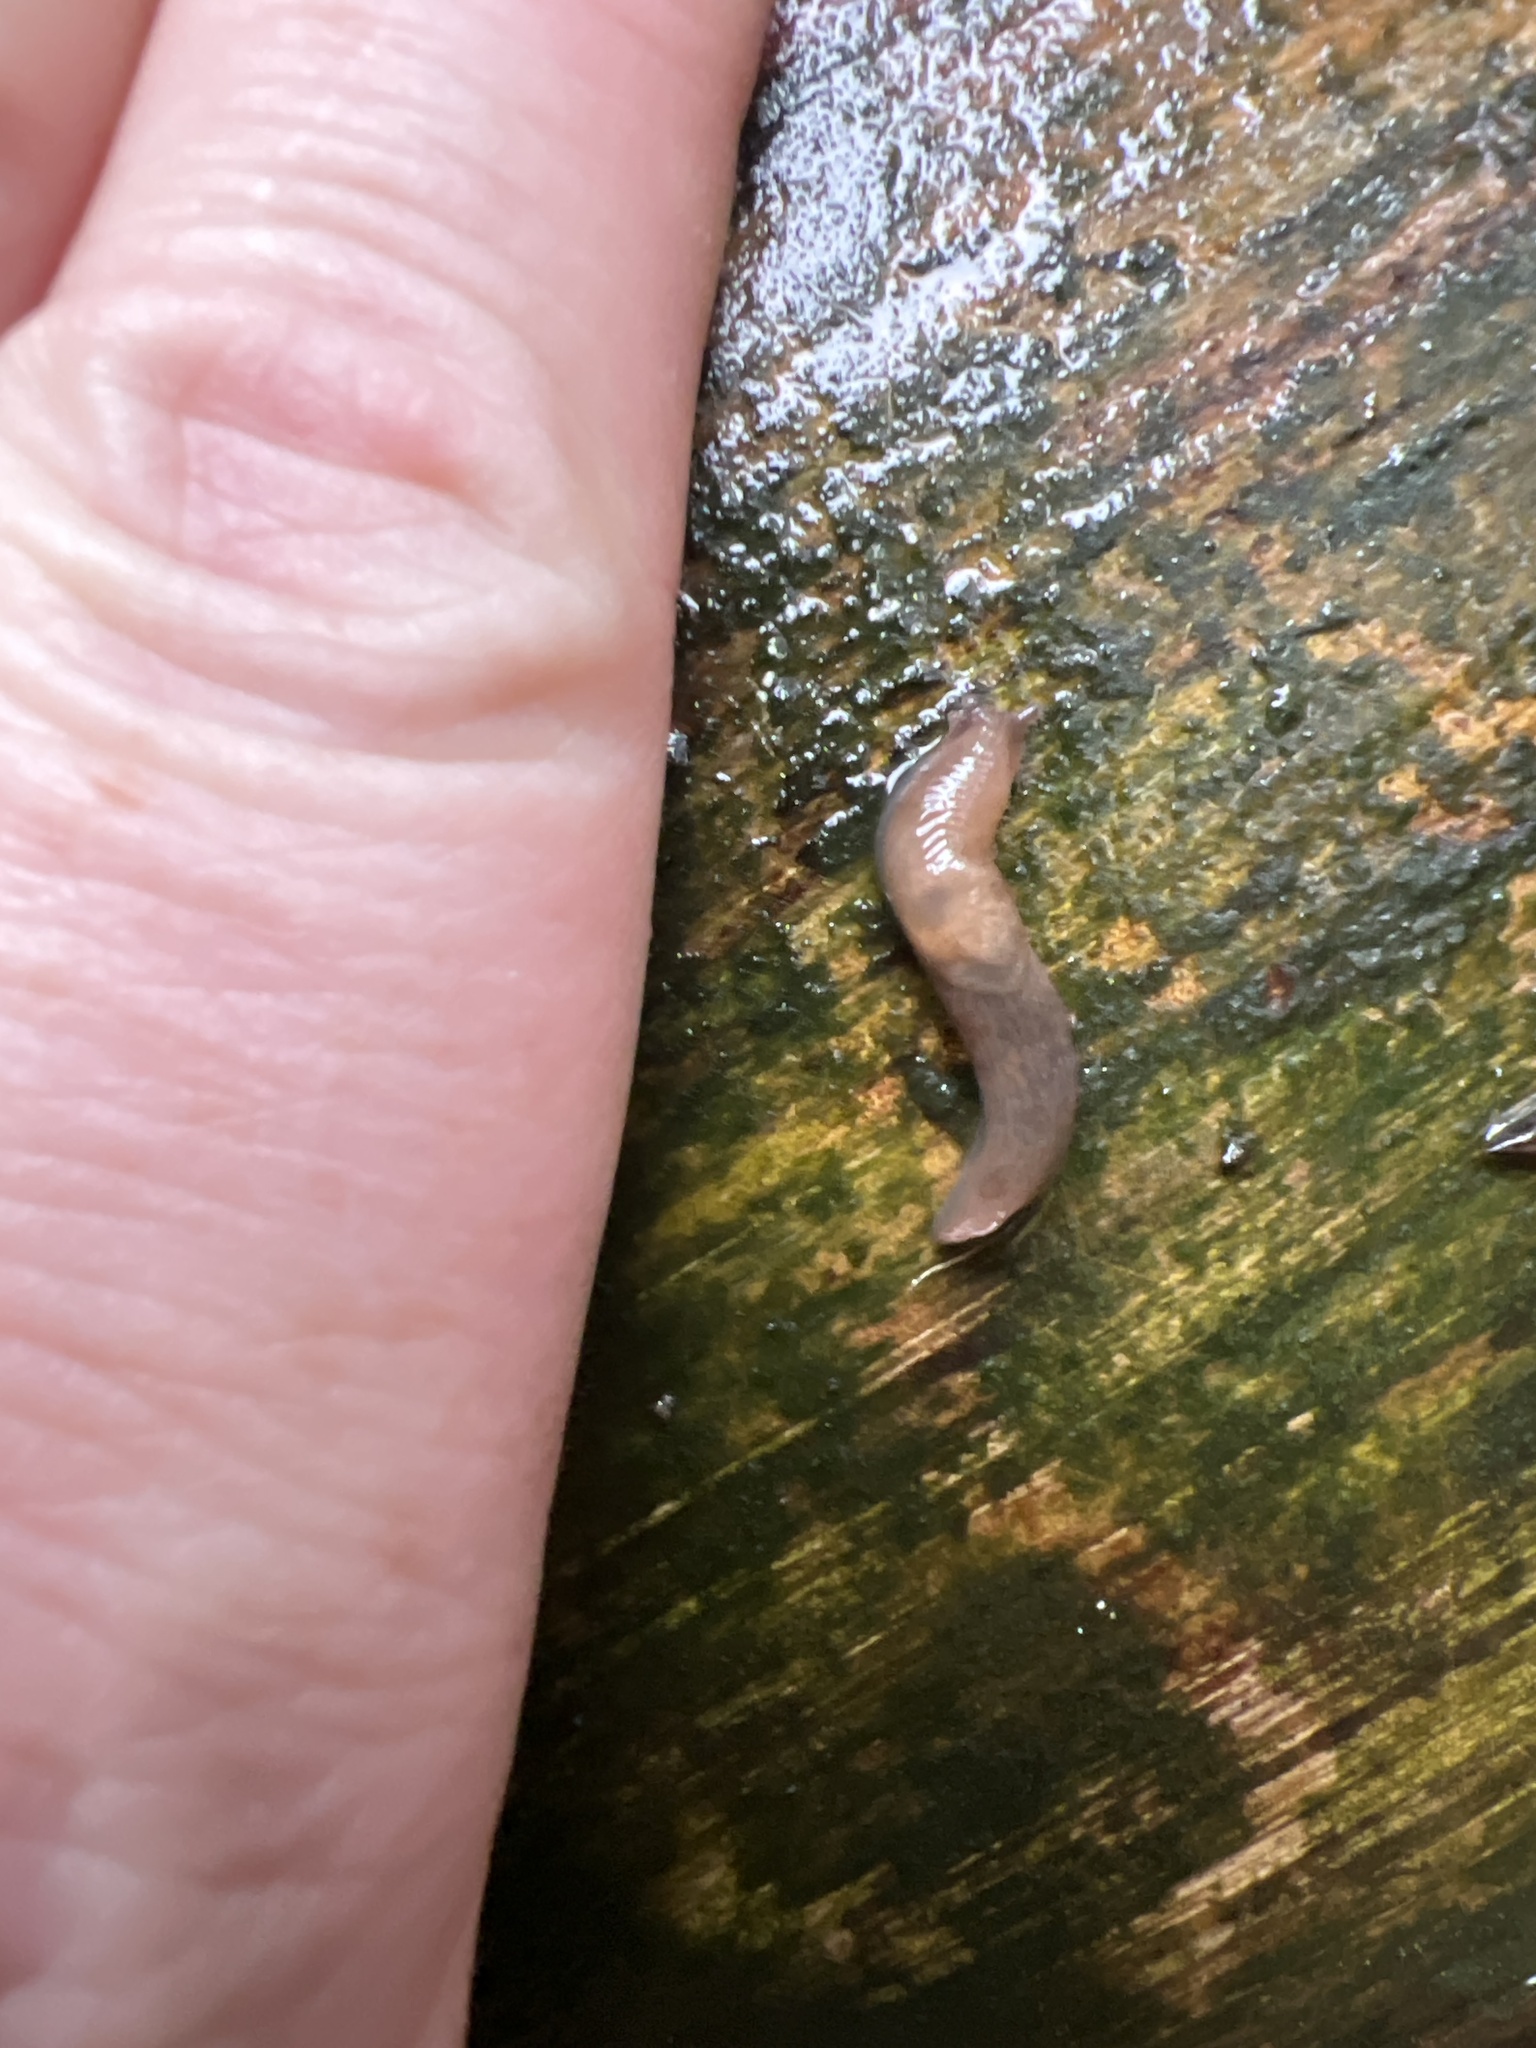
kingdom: Animalia
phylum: Mollusca
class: Gastropoda
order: Stylommatophora
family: Agriolimacidae
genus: Deroceras
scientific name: Deroceras reticulatum
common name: Gray field slug
